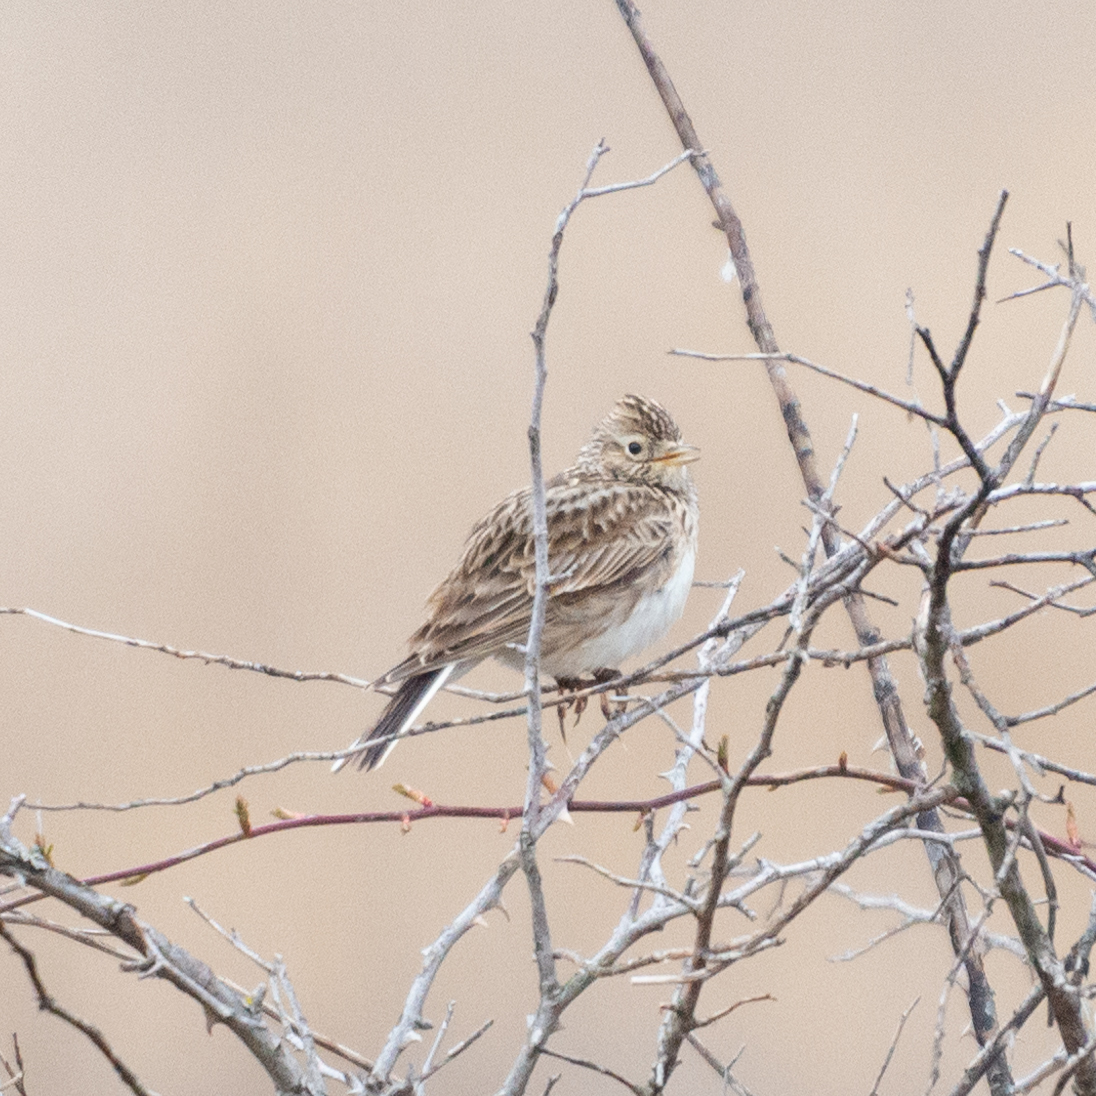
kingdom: Animalia
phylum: Chordata
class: Aves
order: Passeriformes
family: Alaudidae
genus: Alauda
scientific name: Alauda arvensis
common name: Eurasian skylark
